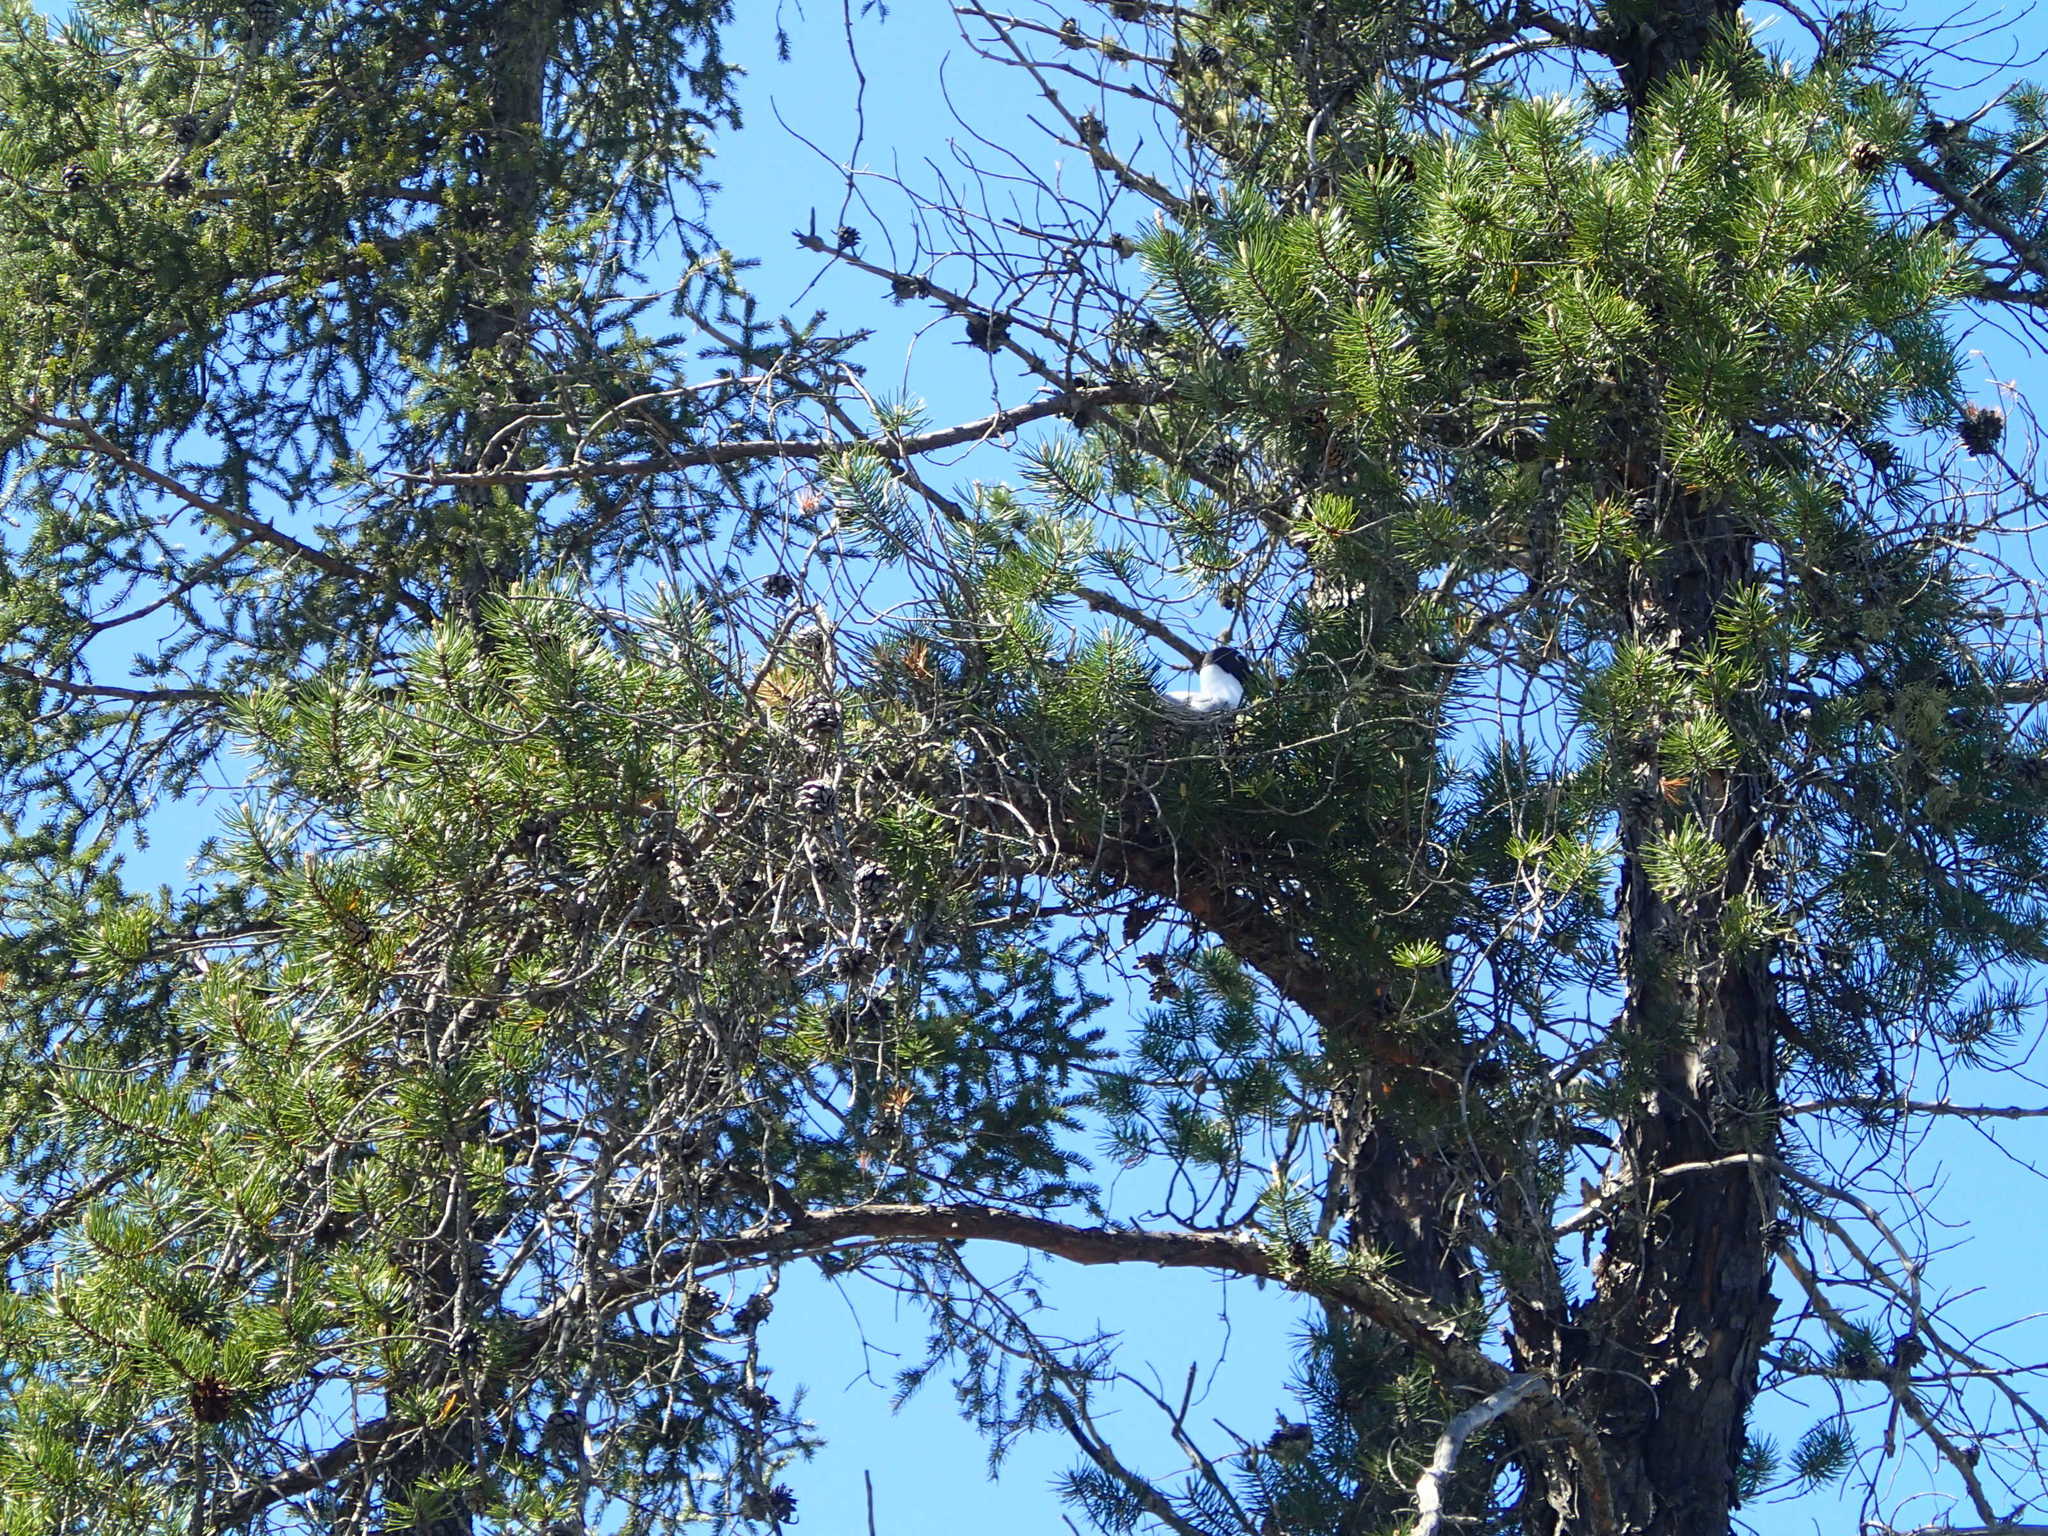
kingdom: Animalia
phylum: Chordata
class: Aves
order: Charadriiformes
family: Laridae
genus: Chroicocephalus
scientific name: Chroicocephalus philadelphia
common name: Bonaparte's gull
